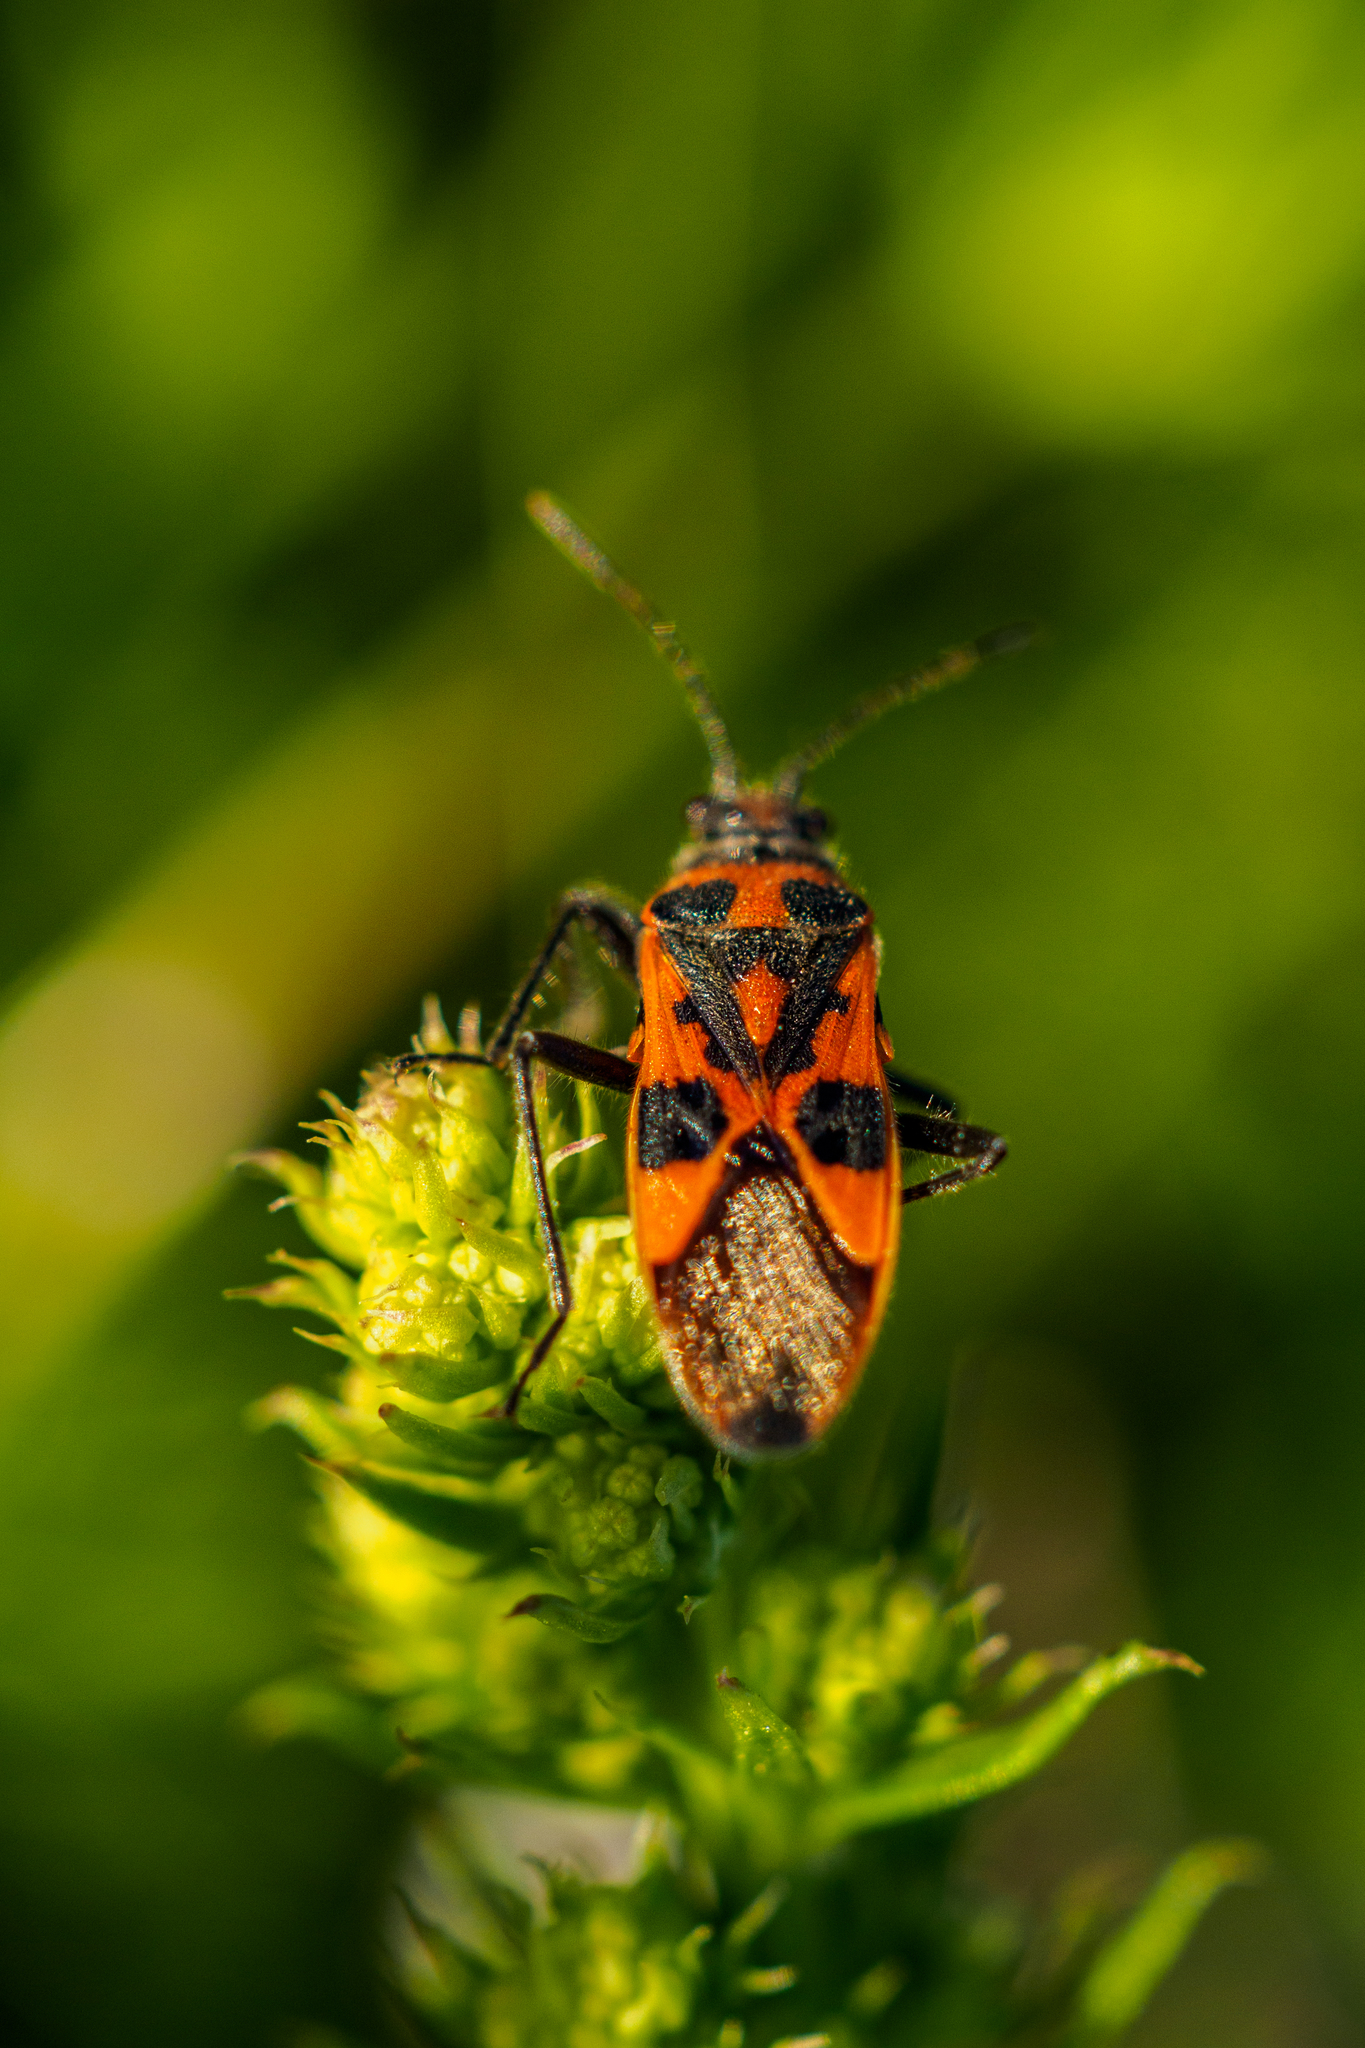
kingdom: Animalia
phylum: Arthropoda
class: Insecta
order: Hemiptera
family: Rhopalidae
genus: Corizus
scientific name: Corizus hyoscyami
